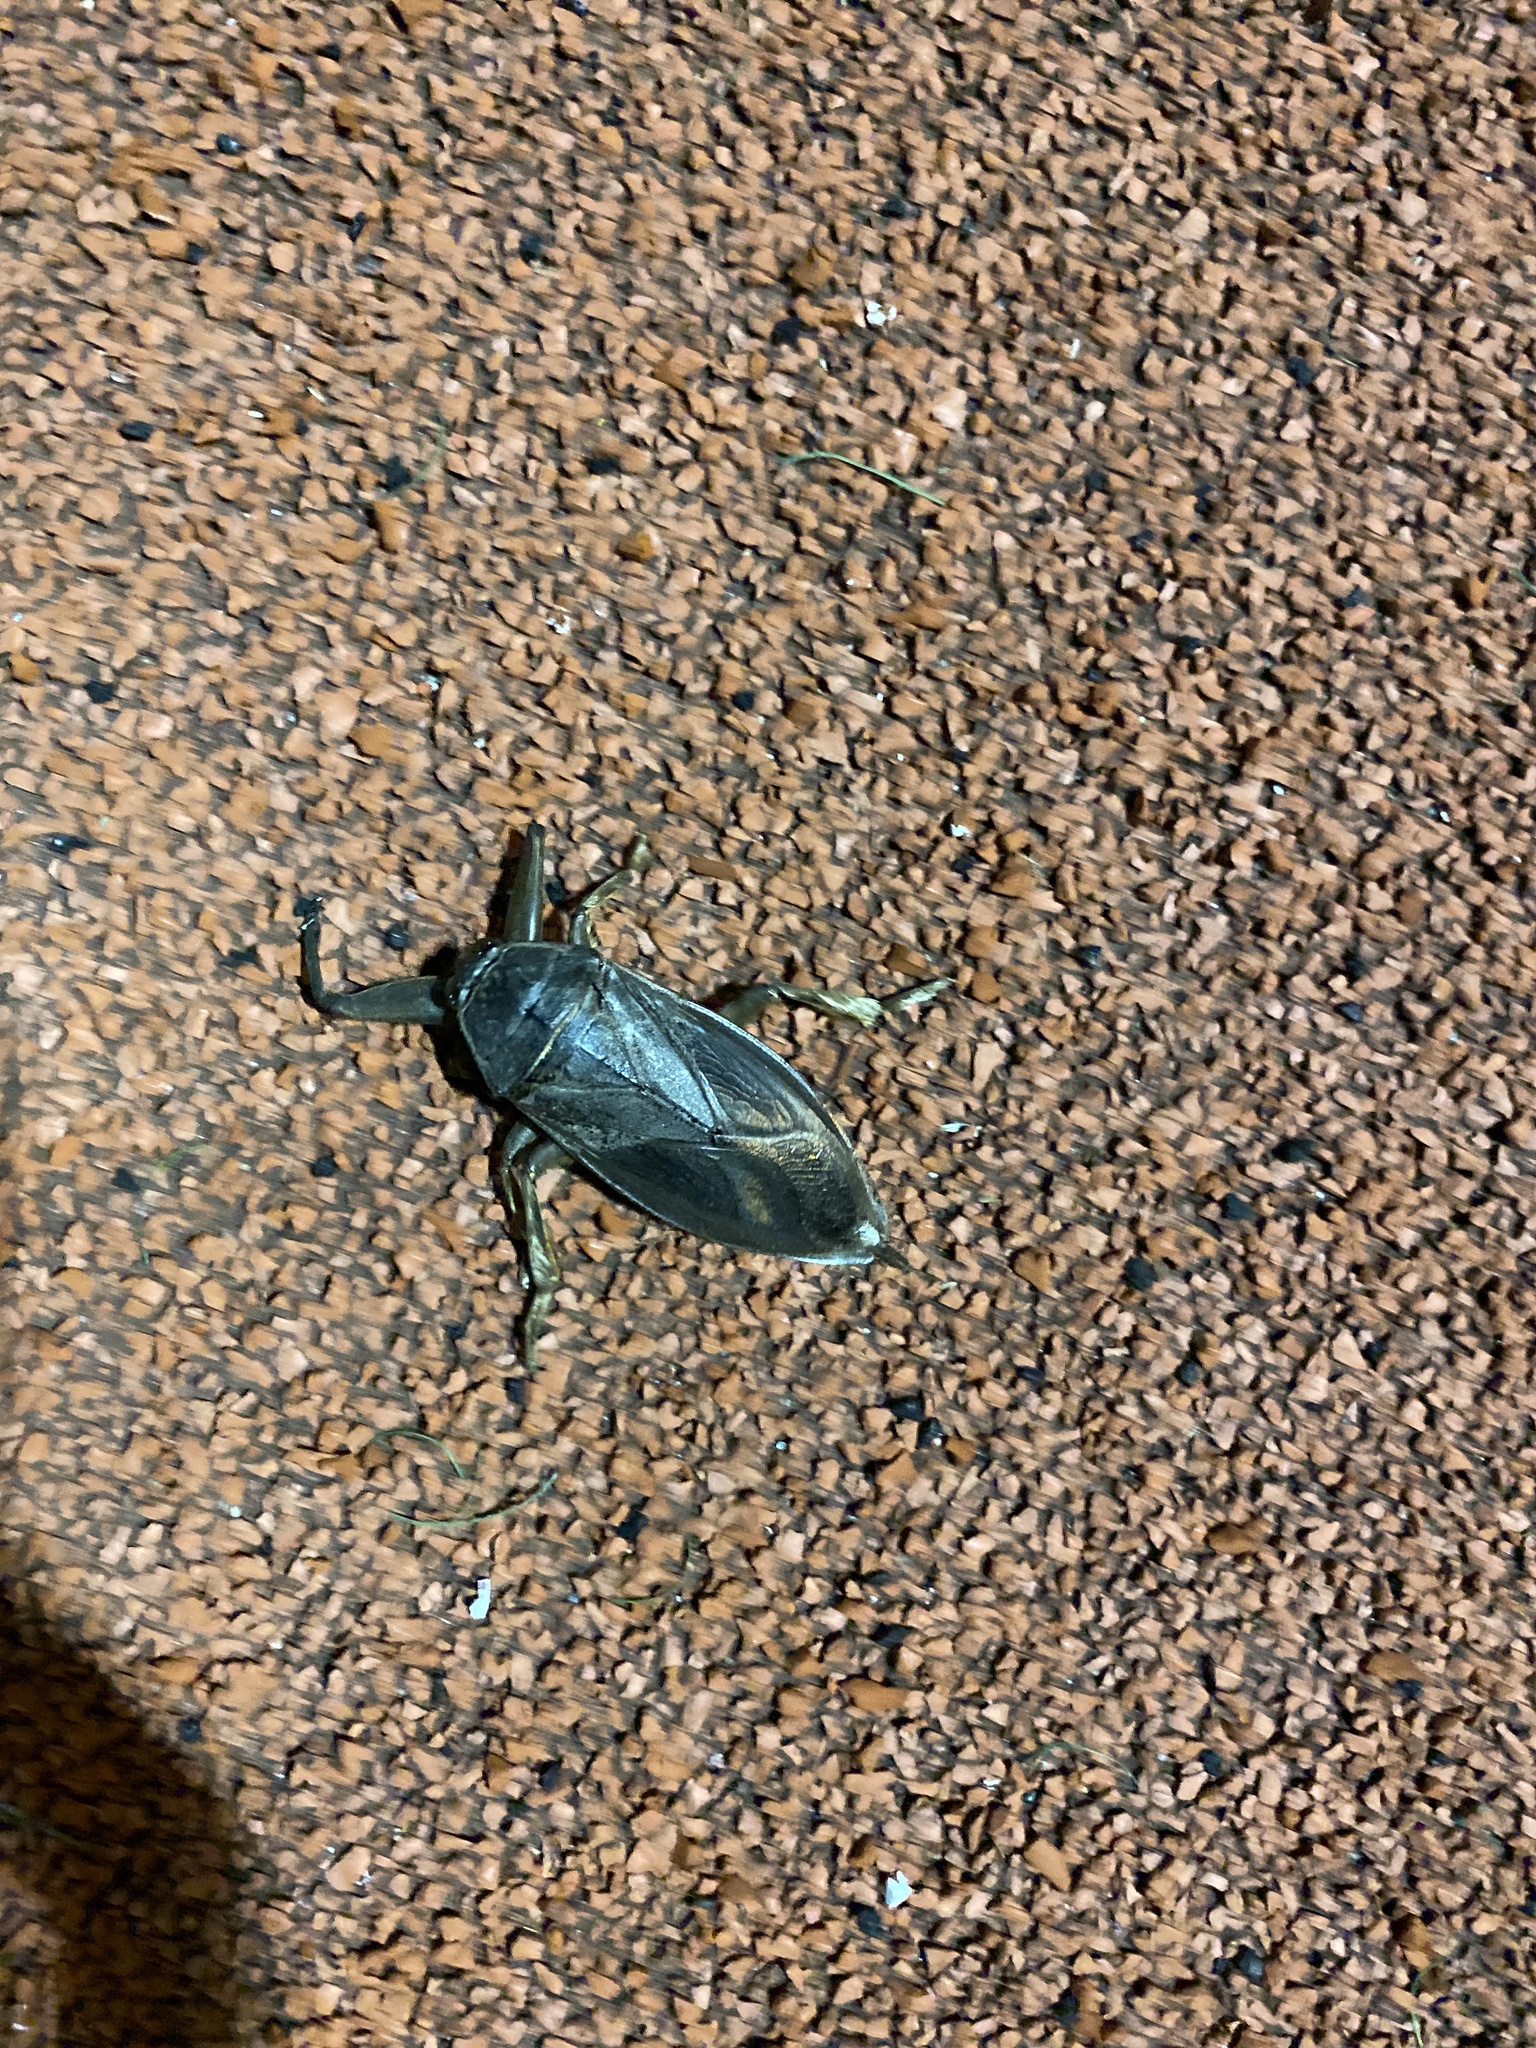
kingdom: Animalia
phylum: Arthropoda
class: Insecta
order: Hemiptera
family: Belostomatidae
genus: Lethocerus
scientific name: Lethocerus americanus
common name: Giant water bug
